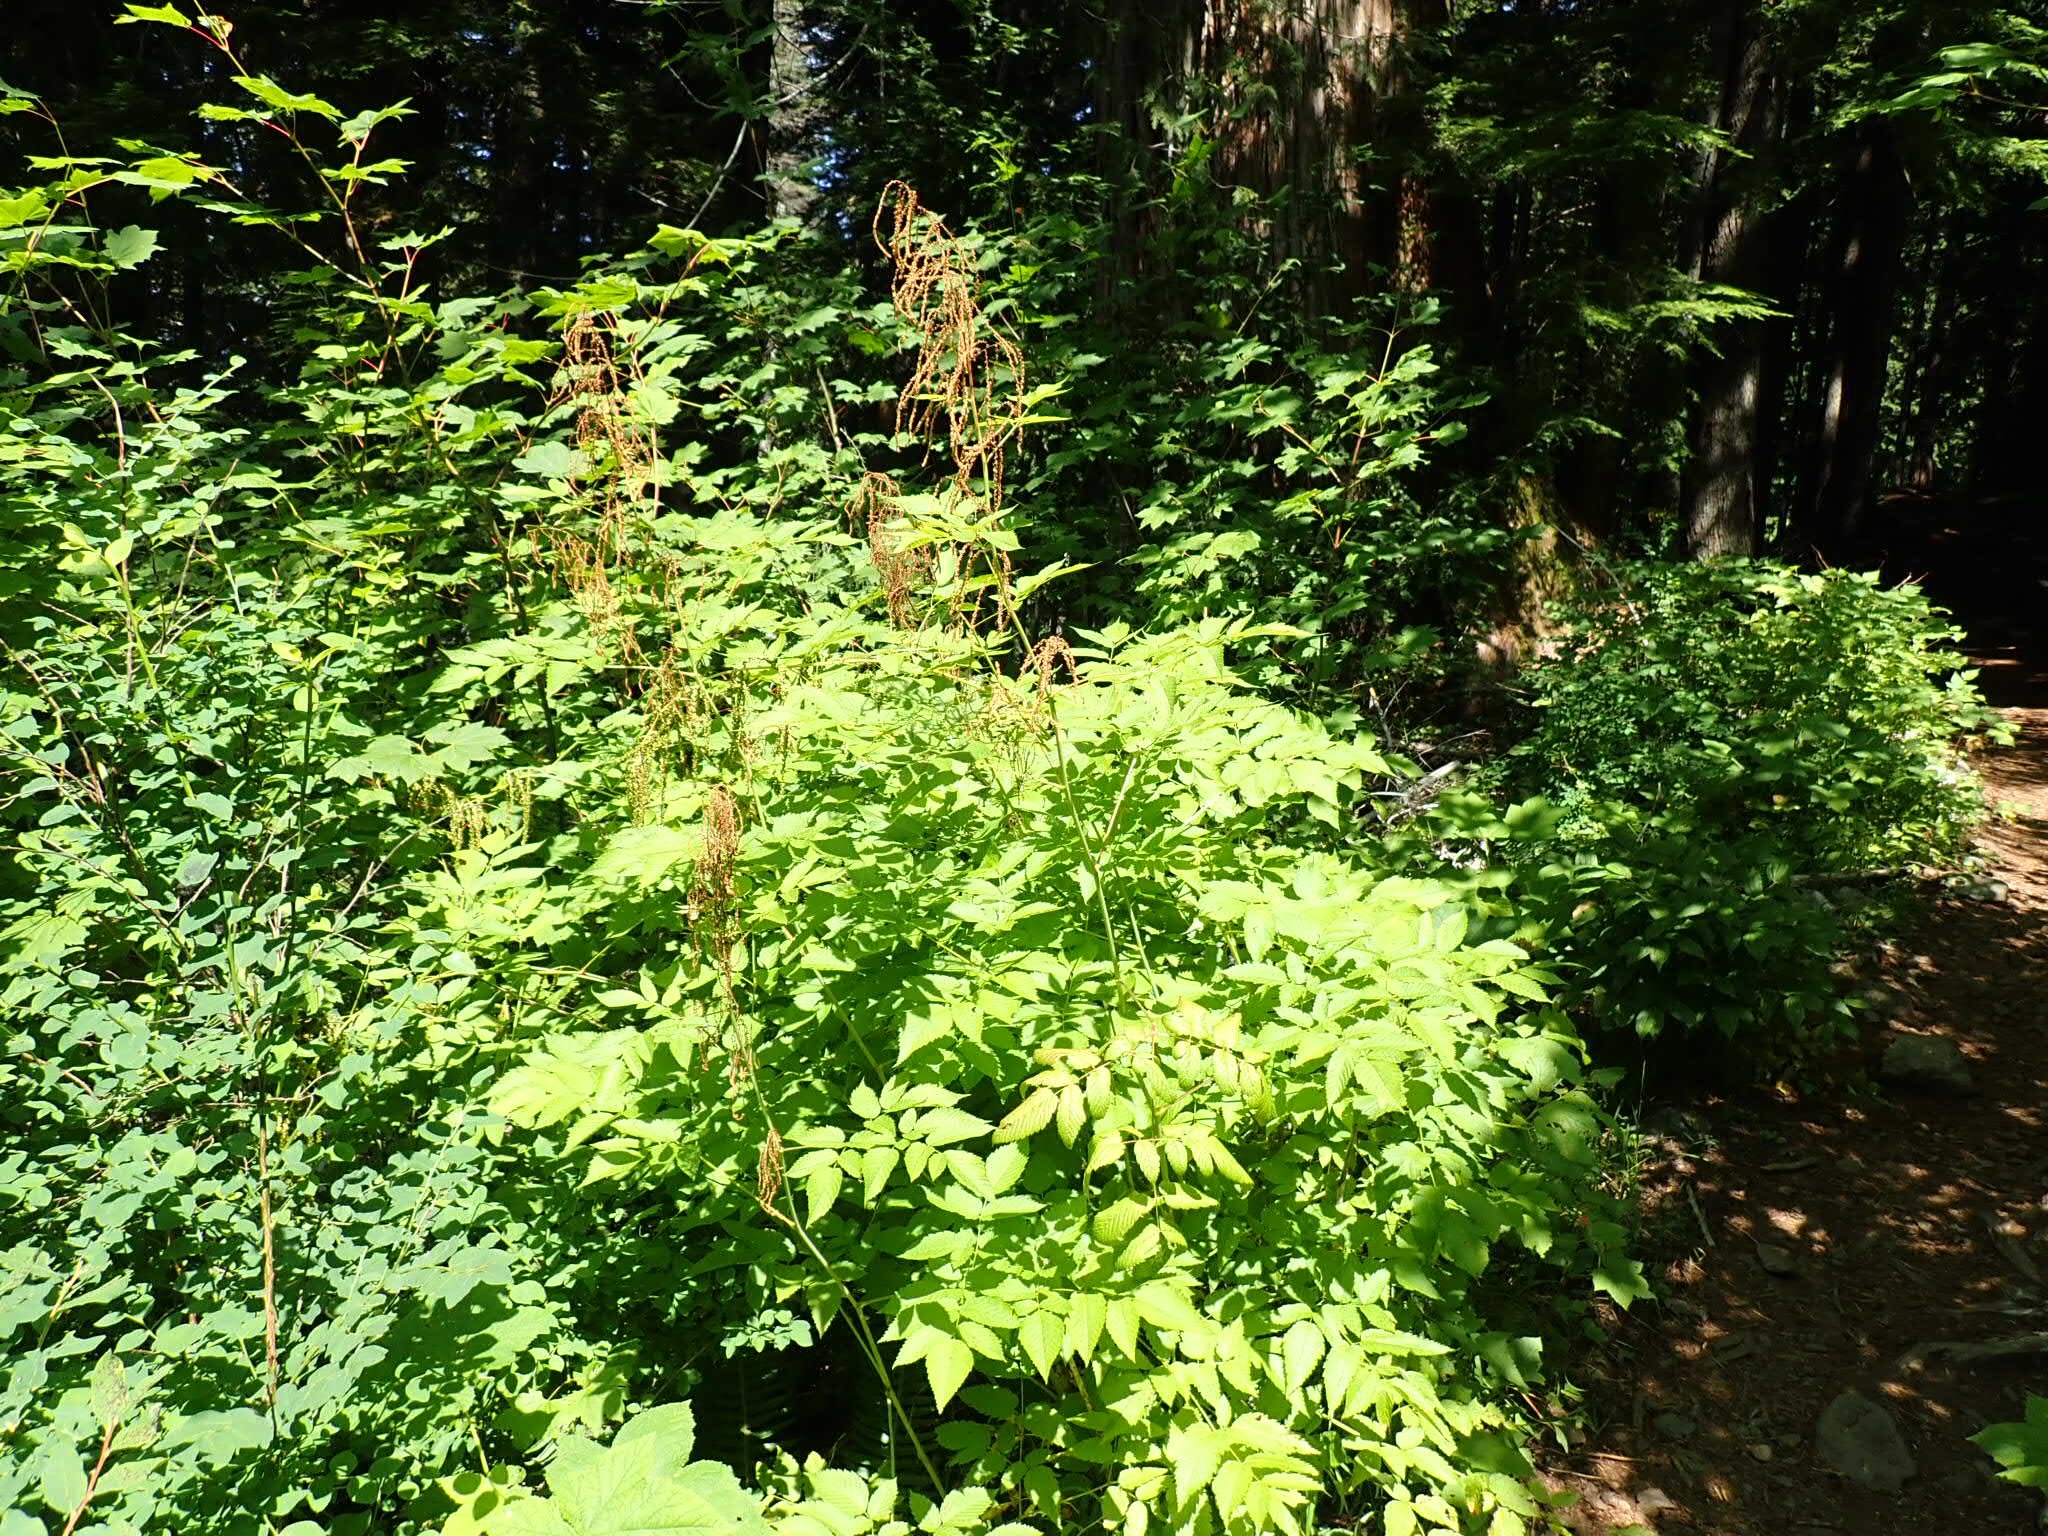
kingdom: Plantae
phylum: Tracheophyta
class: Magnoliopsida
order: Rosales
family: Rosaceae
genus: Aruncus
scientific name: Aruncus dioicus
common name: Buck's-beard
